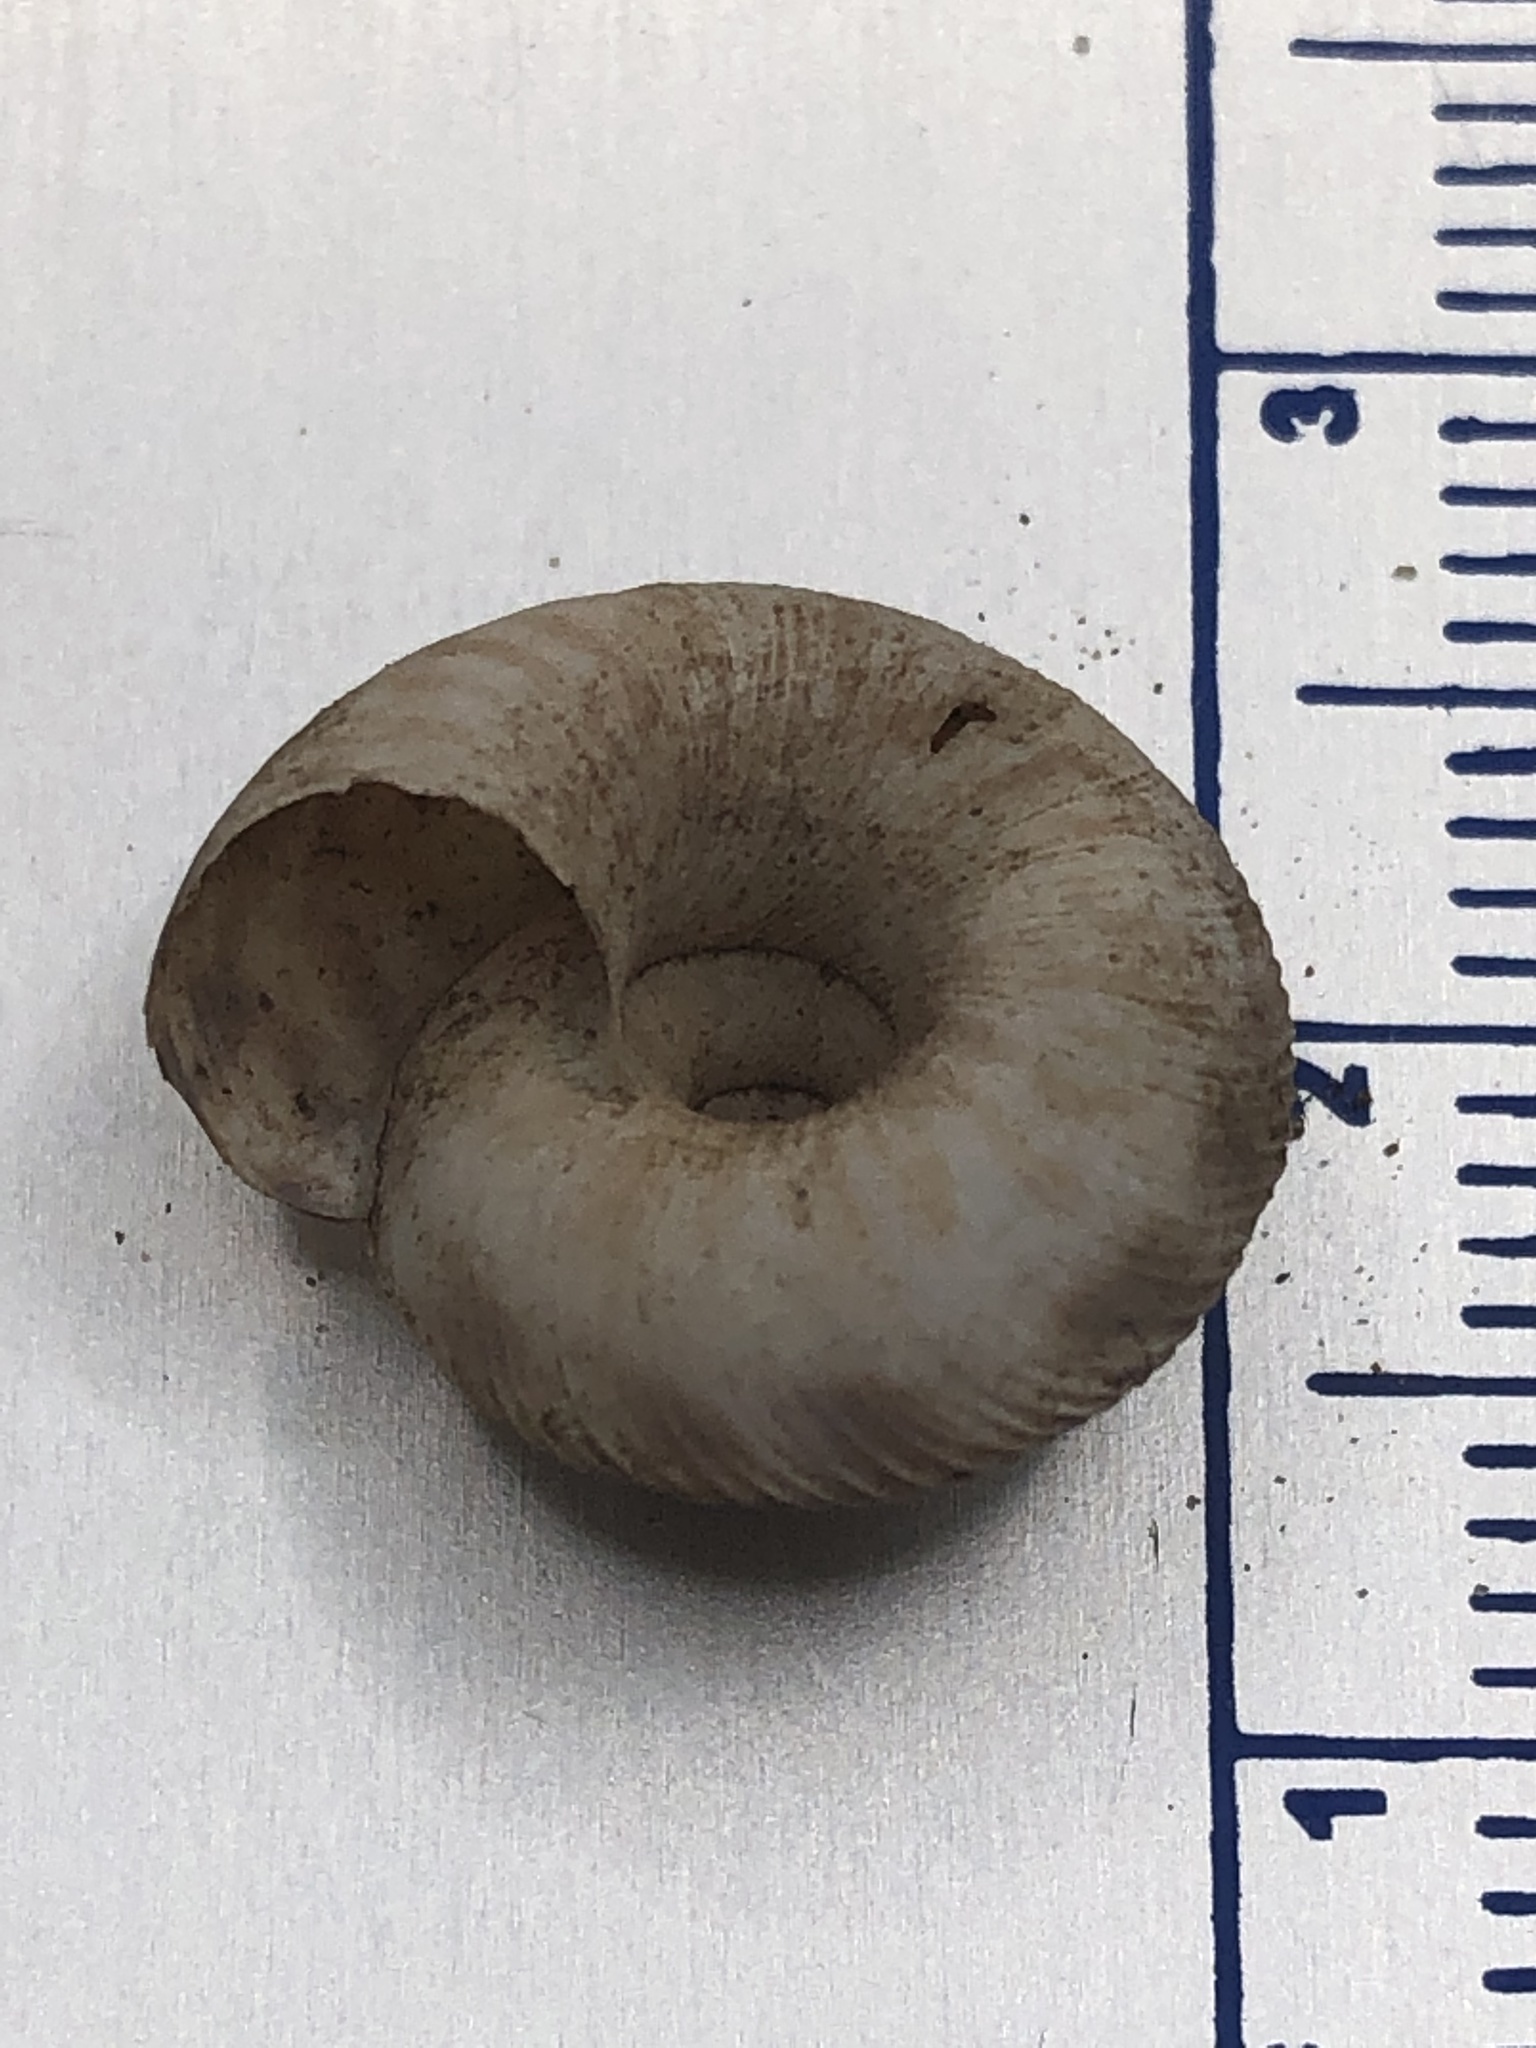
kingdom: Animalia
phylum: Mollusca
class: Gastropoda
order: Stylommatophora
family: Discidae
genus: Anguispira
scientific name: Anguispira alternata
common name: Flamed tigersnail
